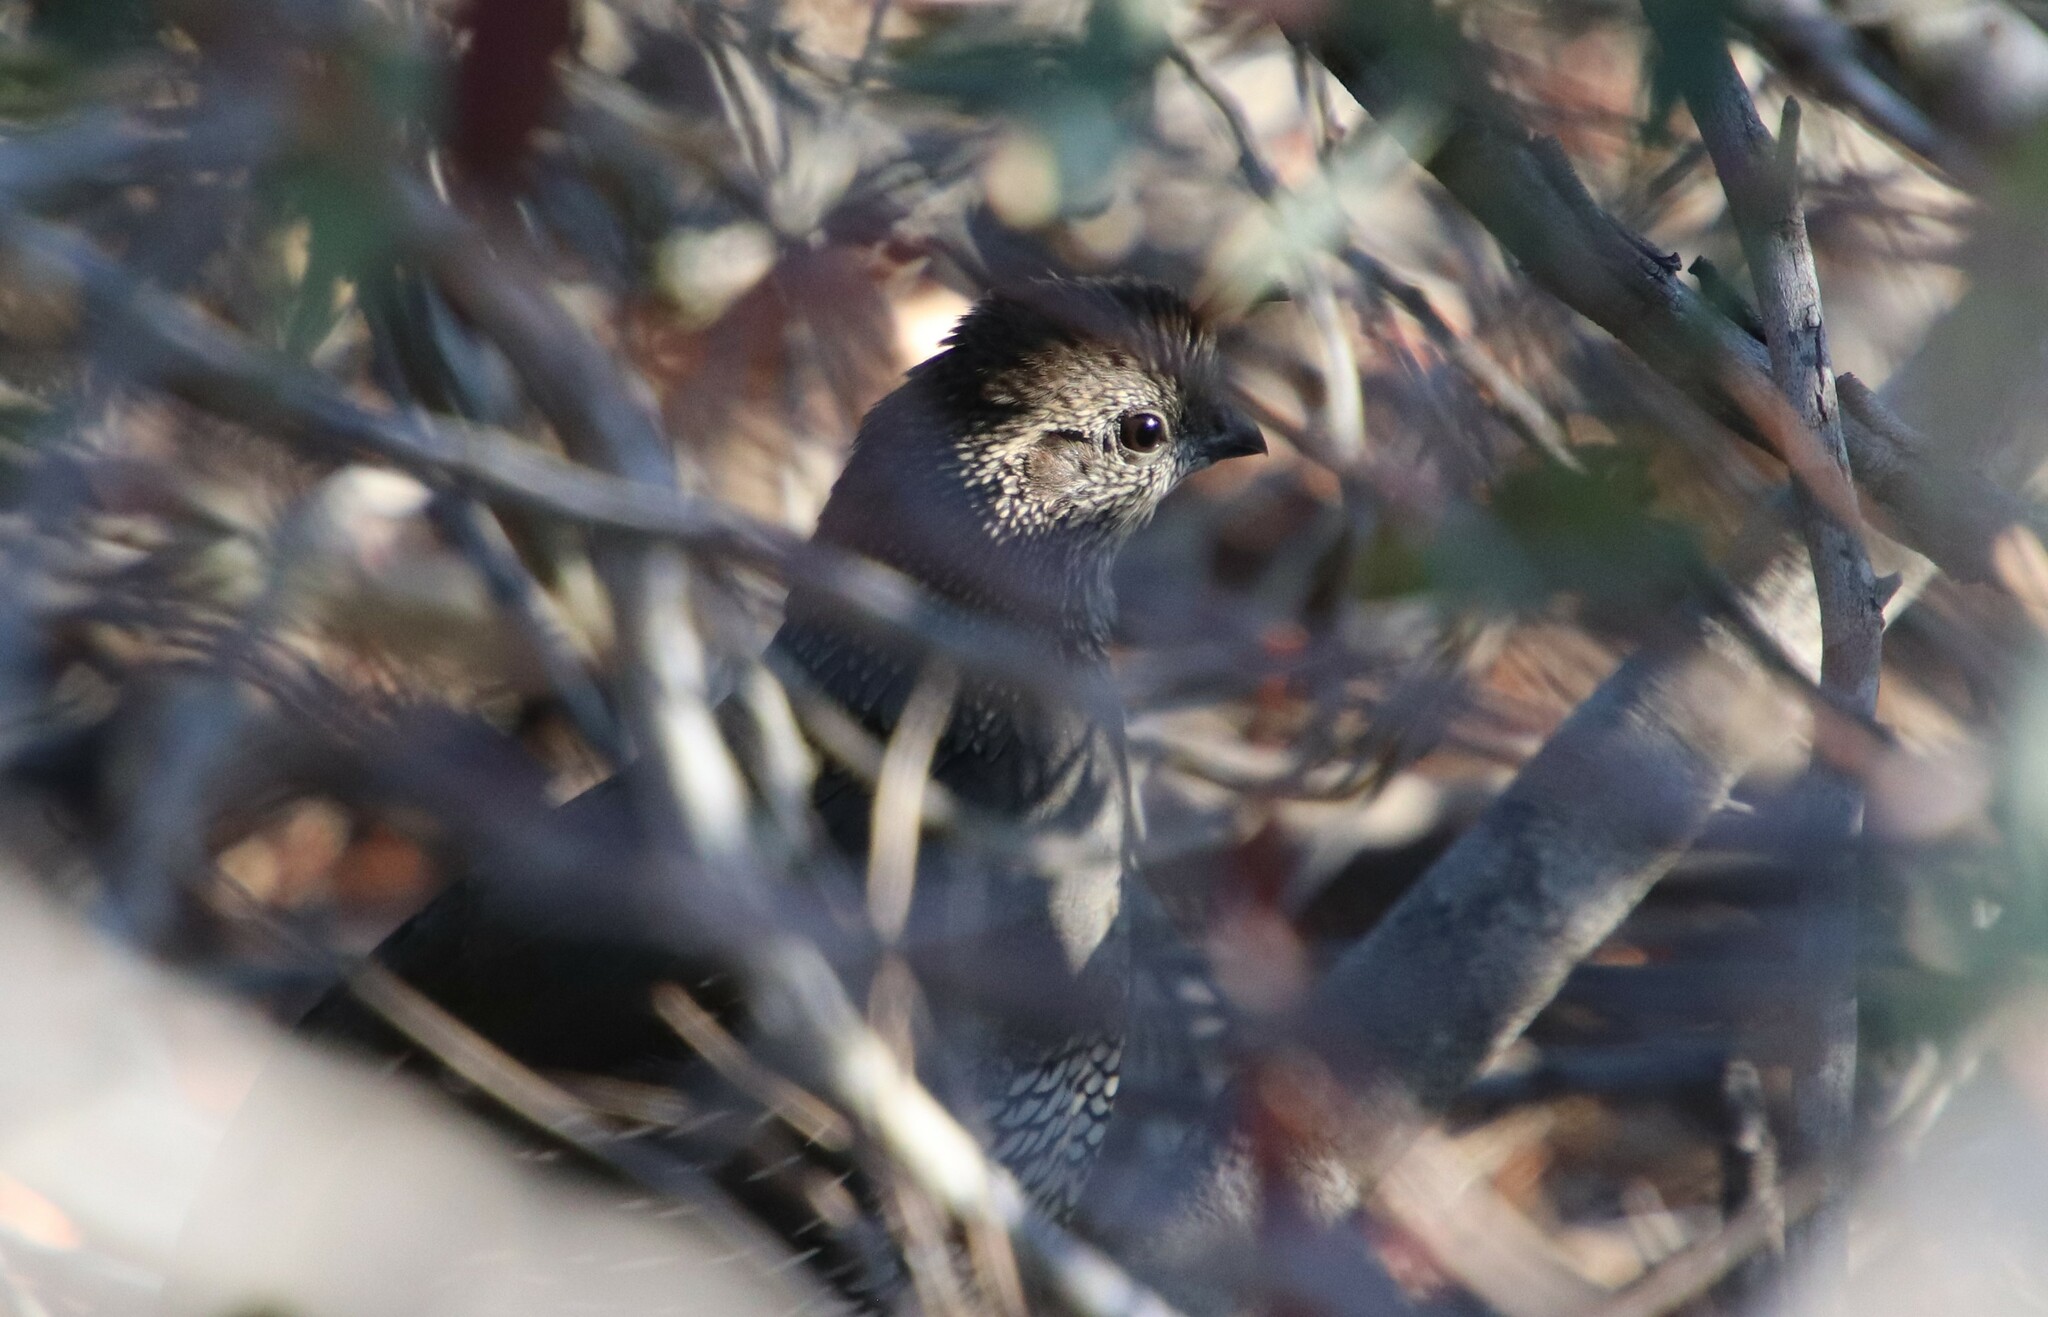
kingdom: Animalia
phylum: Chordata
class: Aves
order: Galliformes
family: Odontophoridae
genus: Callipepla
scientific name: Callipepla californica
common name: California quail
